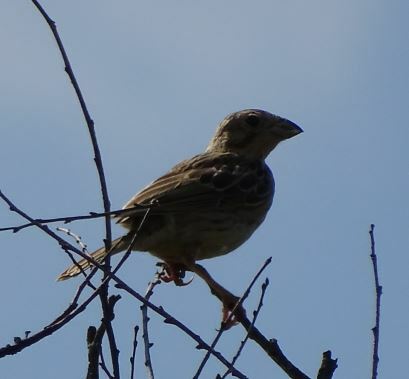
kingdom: Animalia
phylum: Chordata
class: Aves
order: Passeriformes
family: Emberizidae
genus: Emberiza
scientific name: Emberiza calandra
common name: Corn bunting
